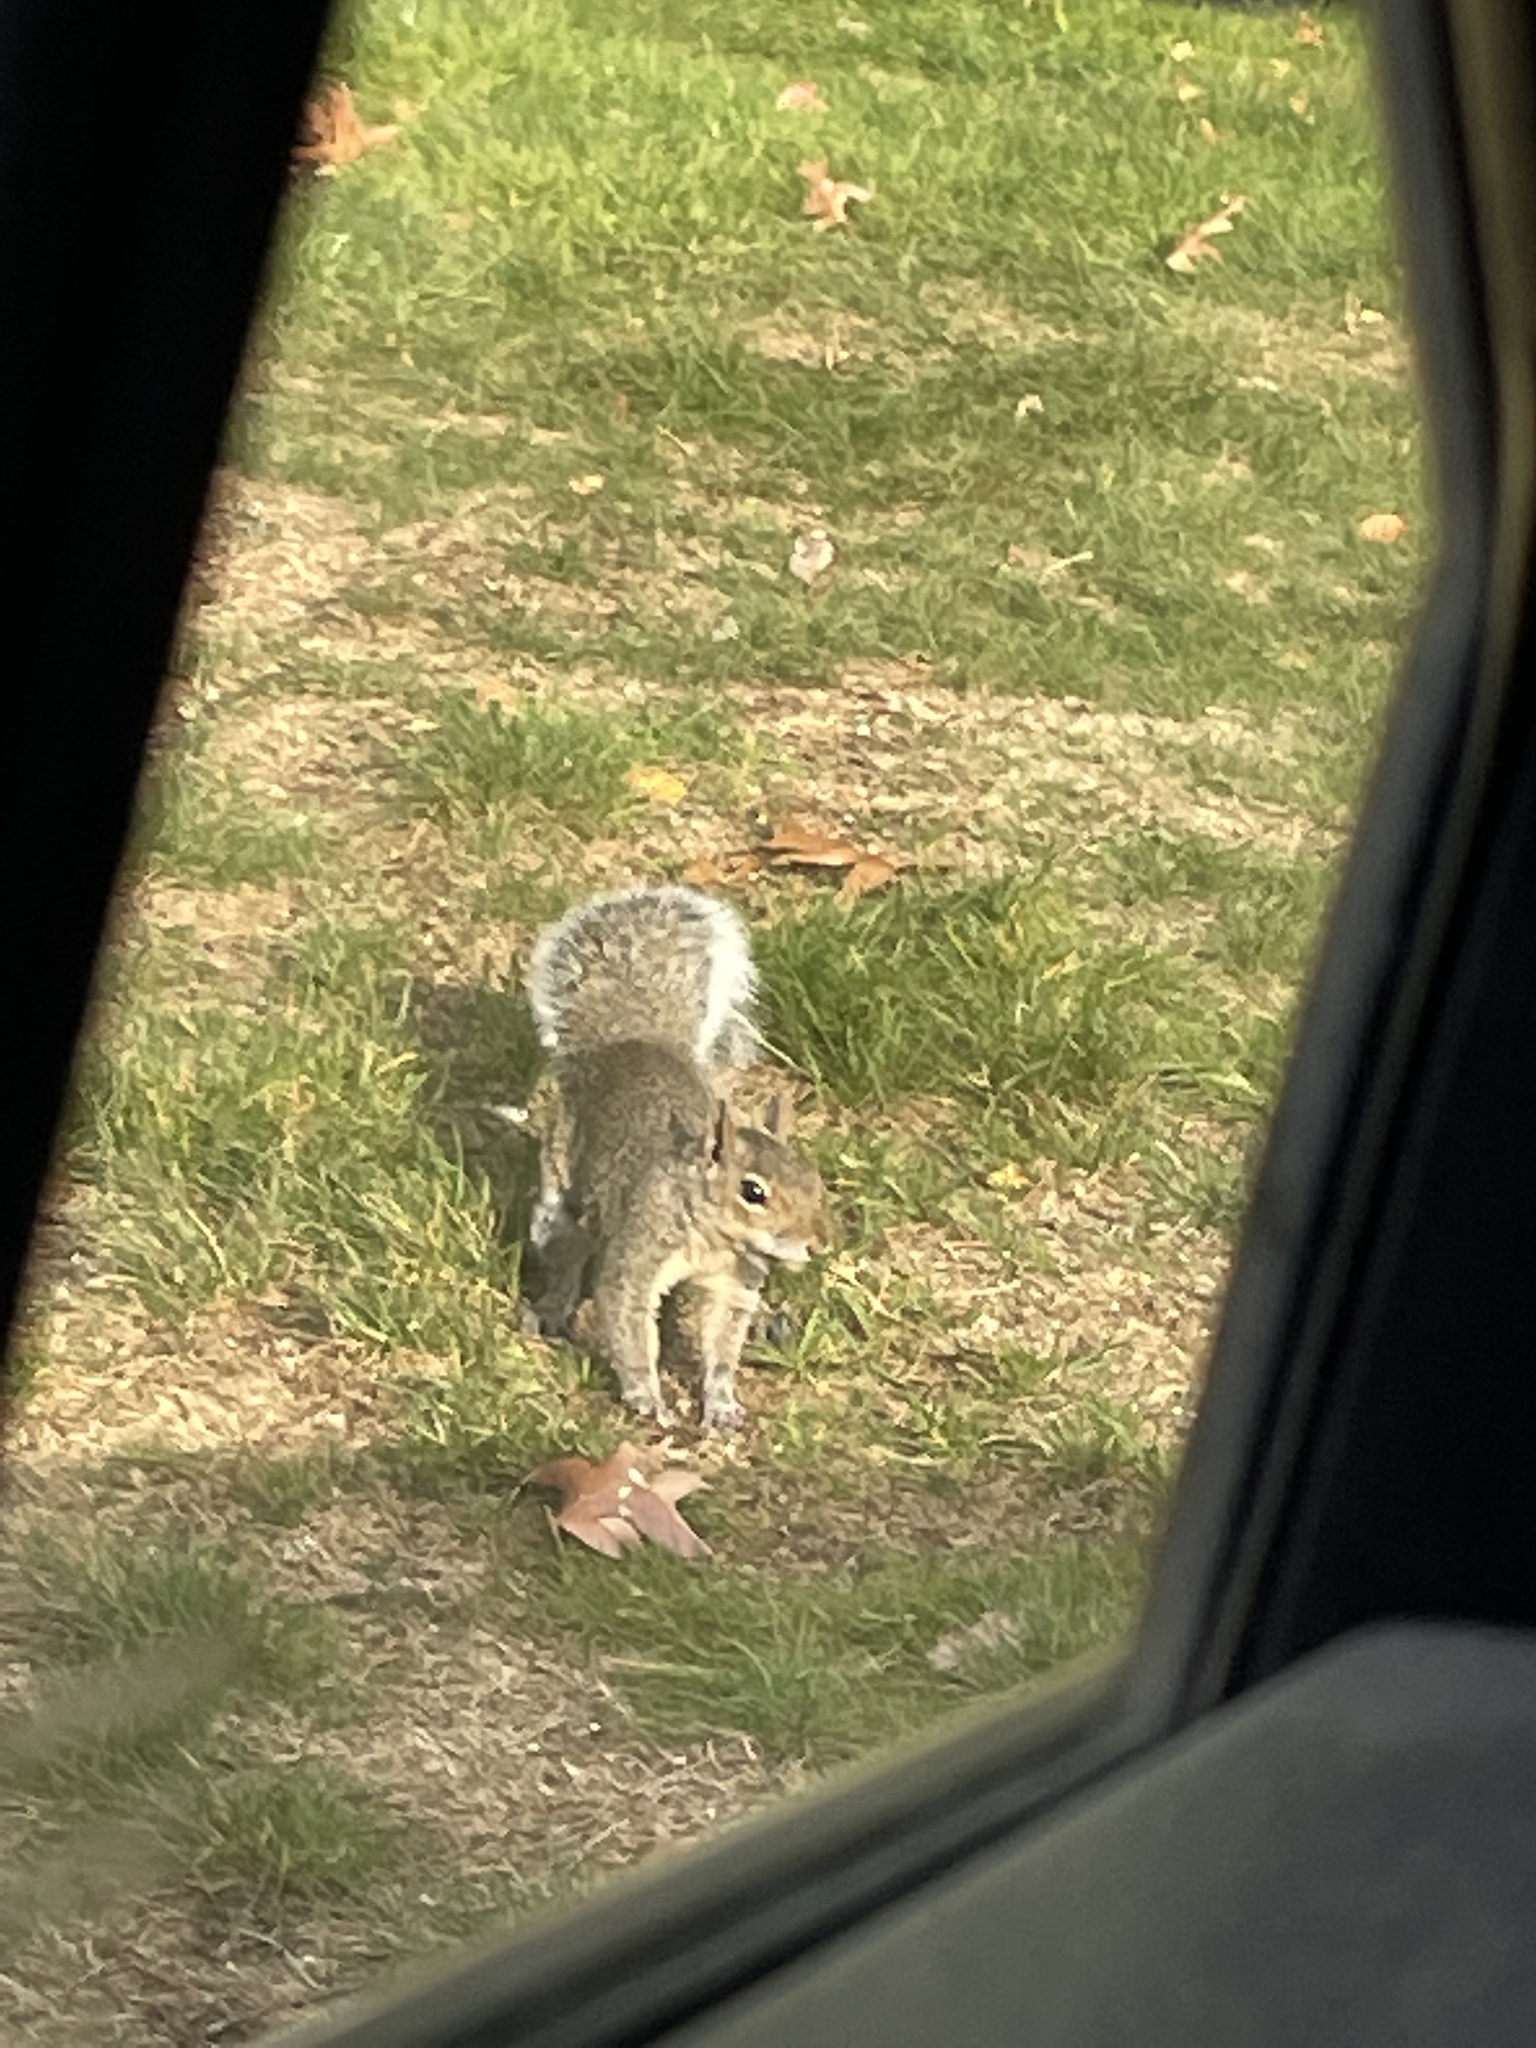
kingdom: Animalia
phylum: Chordata
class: Mammalia
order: Rodentia
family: Sciuridae
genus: Sciurus
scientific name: Sciurus carolinensis
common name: Eastern gray squirrel
